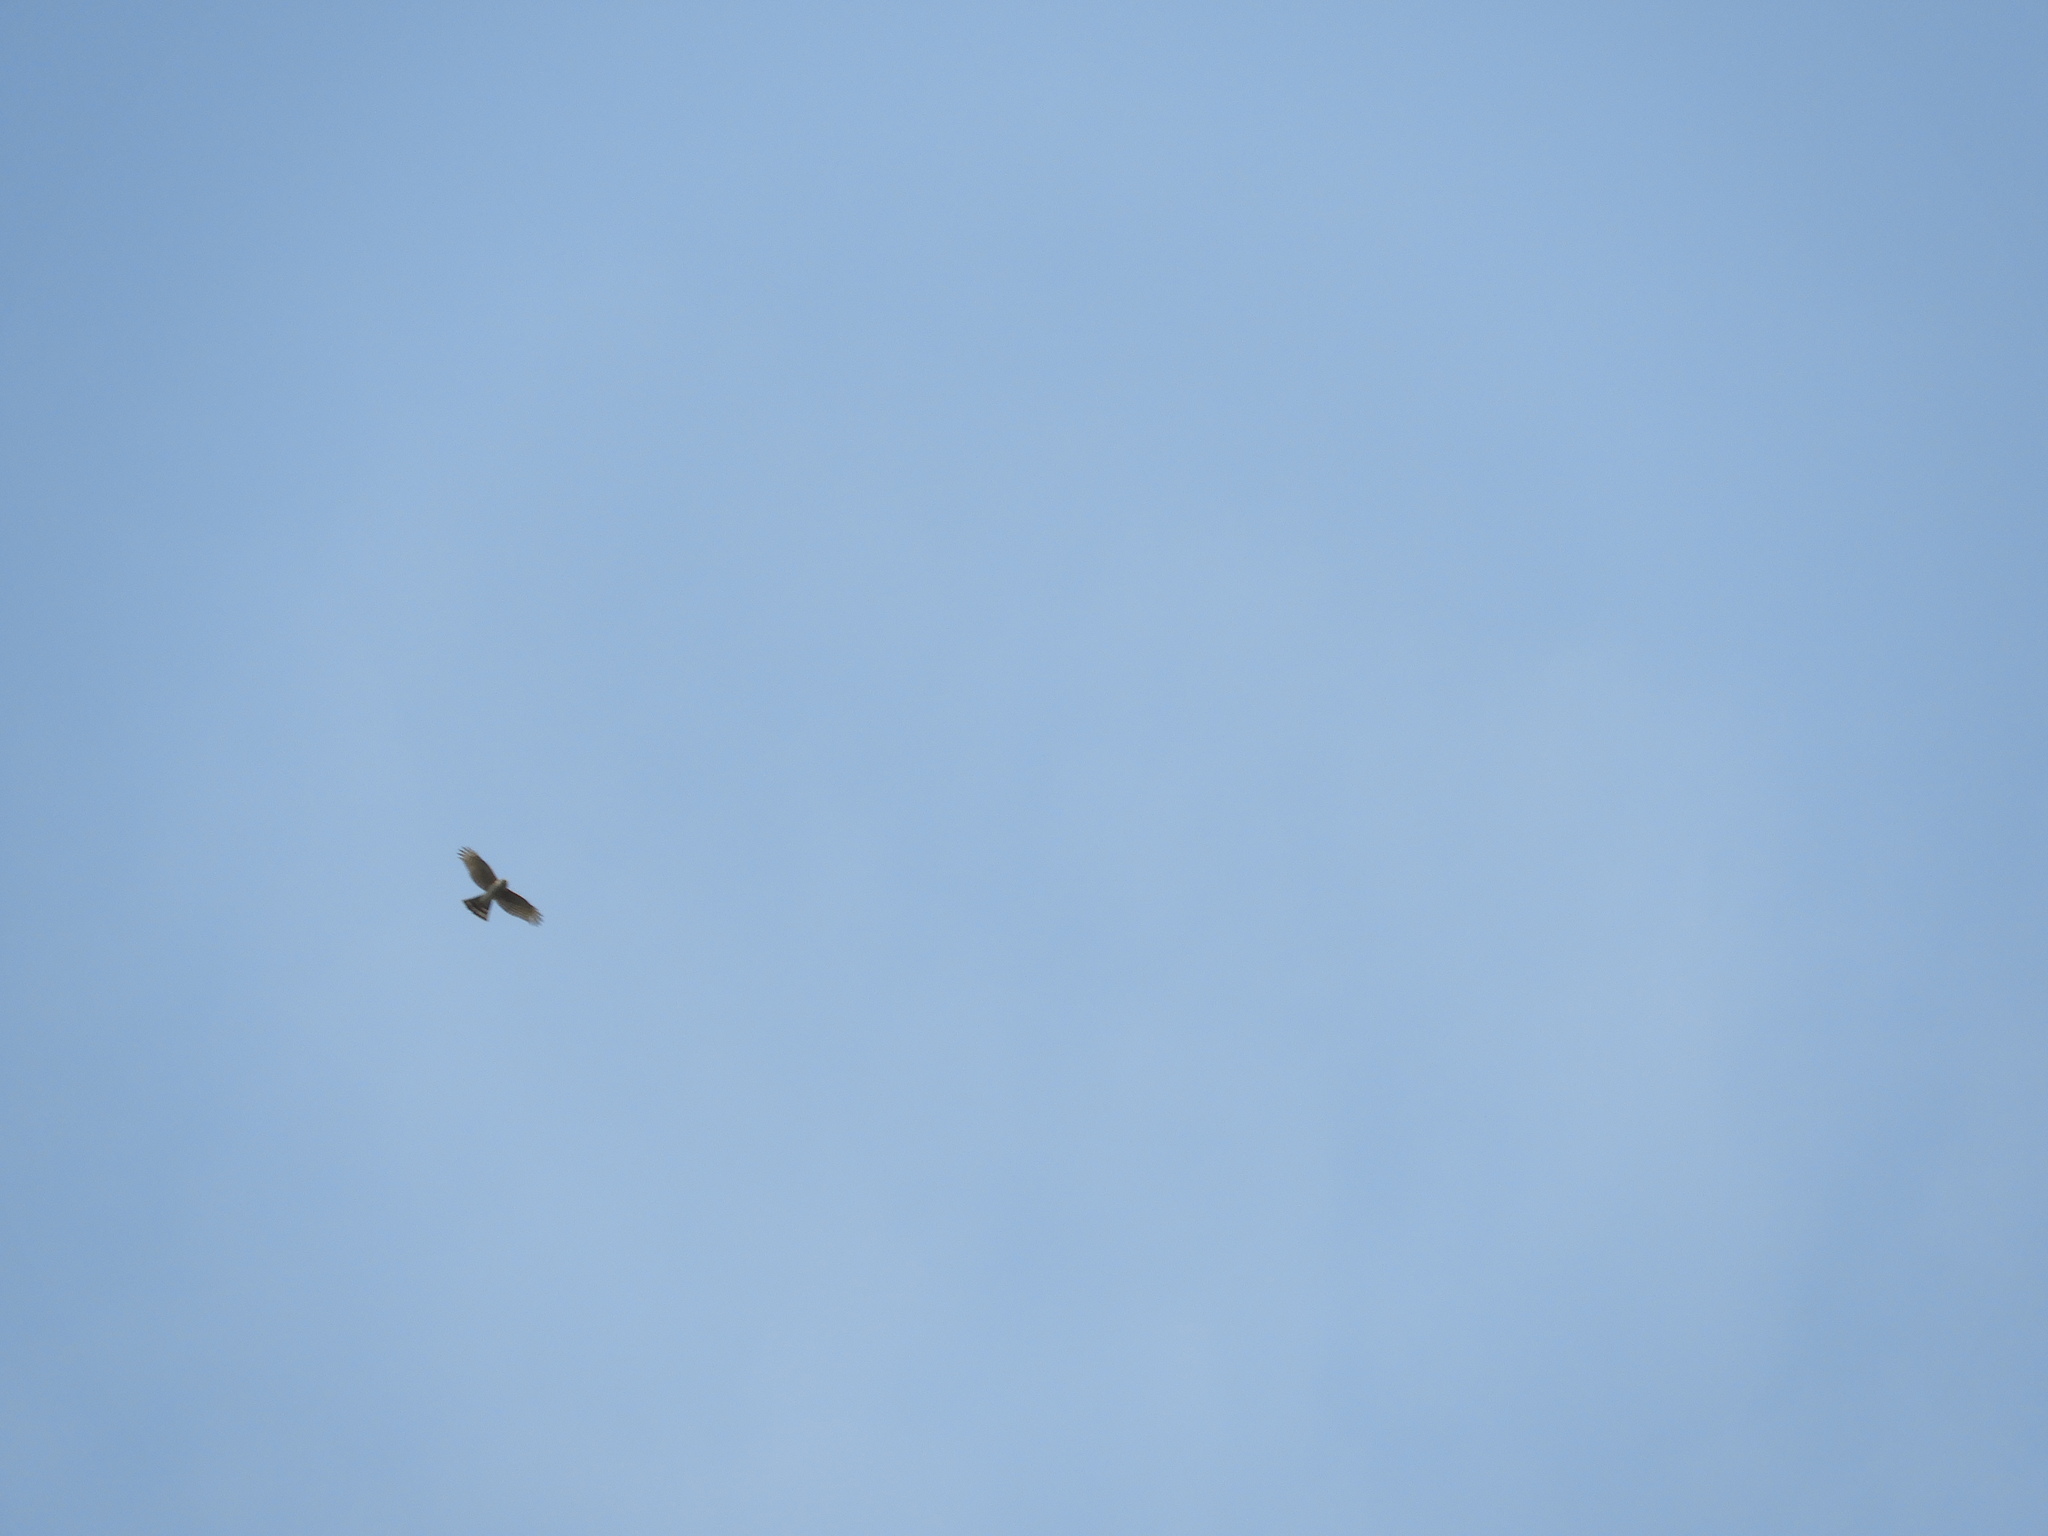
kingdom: Animalia
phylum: Chordata
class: Aves
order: Accipitriformes
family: Accipitridae
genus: Accipiter
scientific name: Accipiter striatus
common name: Sharp-shinned hawk
